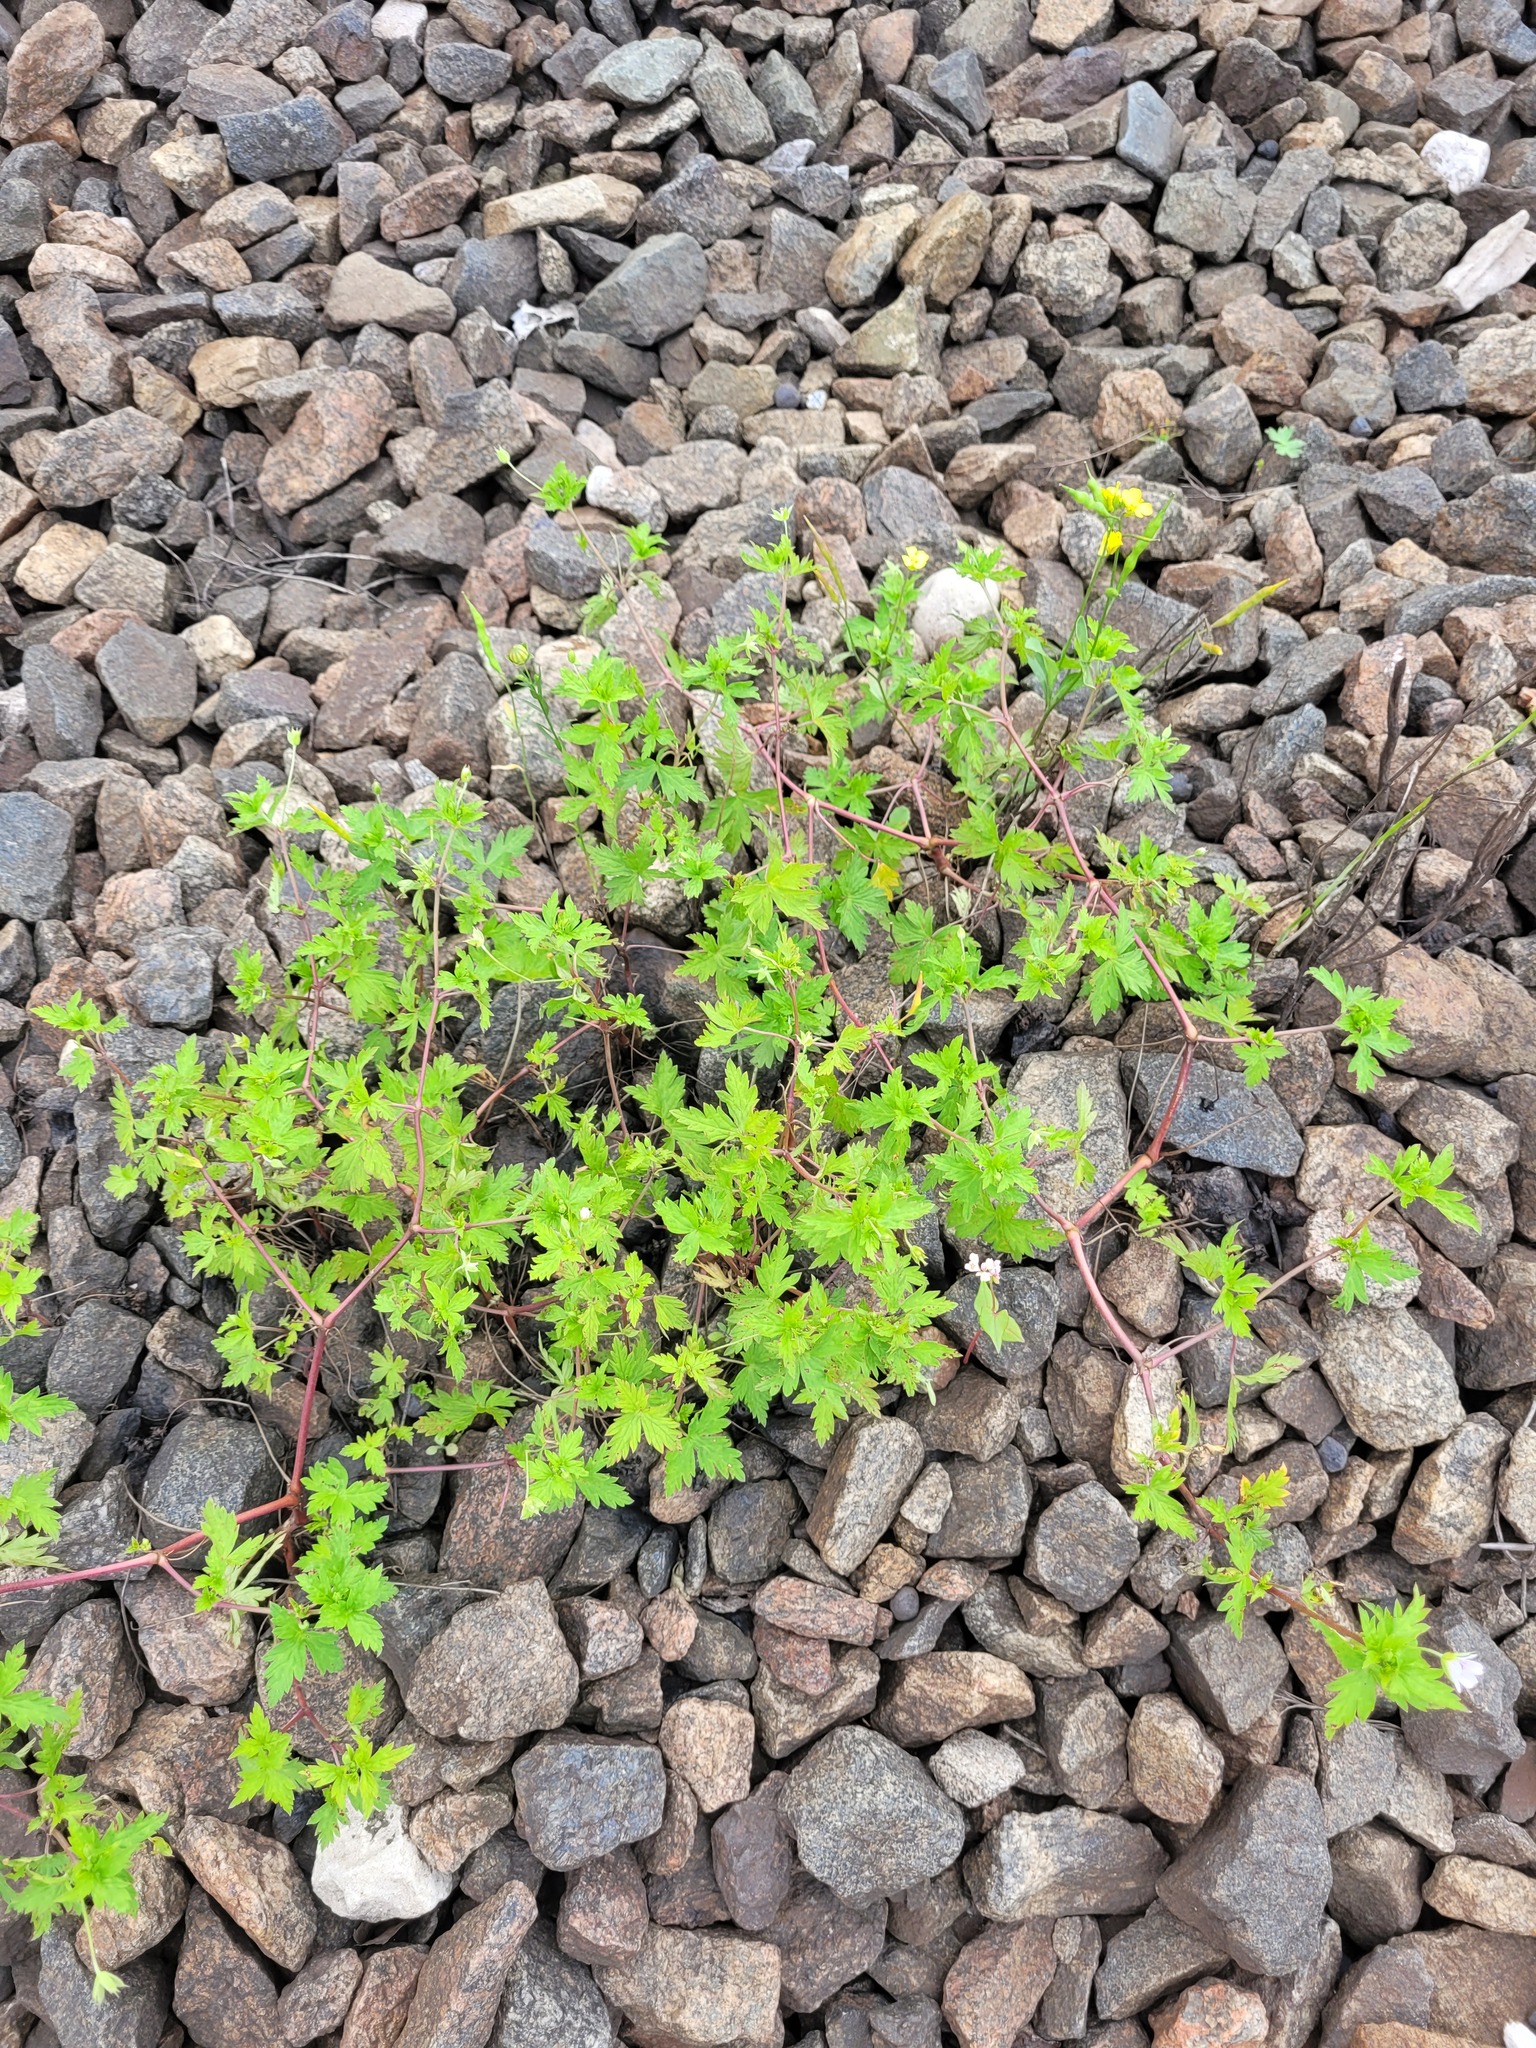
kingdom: Plantae
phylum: Tracheophyta
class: Magnoliopsida
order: Geraniales
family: Geraniaceae
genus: Geranium
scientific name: Geranium sibiricum
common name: Siberian crane's-bill
